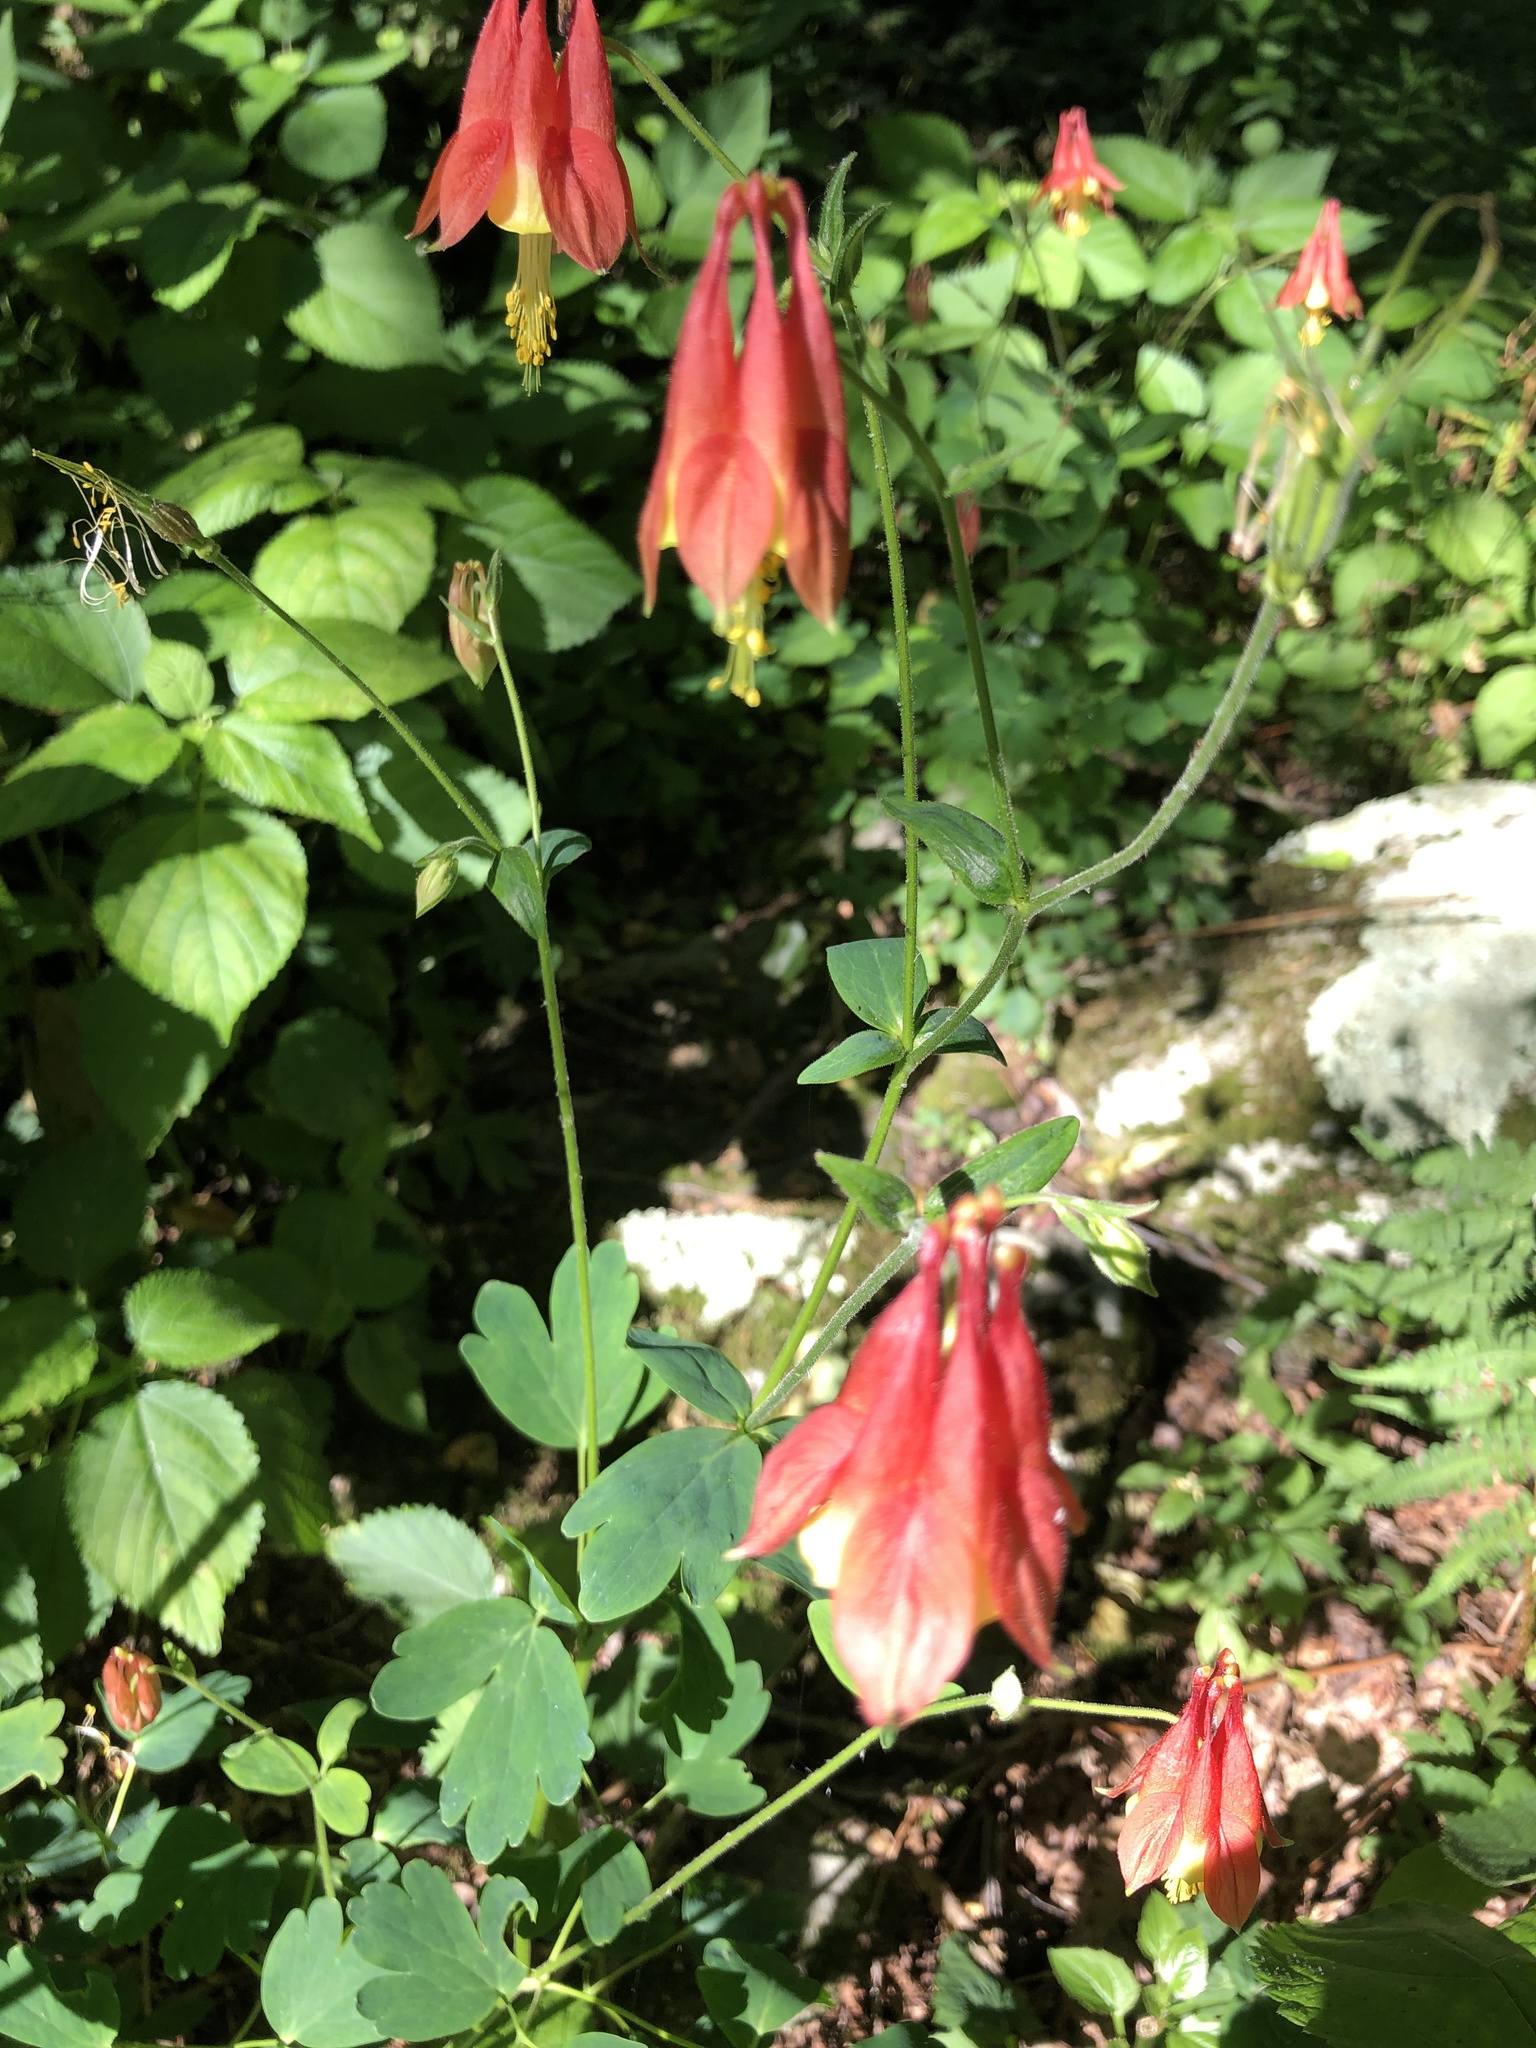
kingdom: Plantae
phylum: Tracheophyta
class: Magnoliopsida
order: Ranunculales
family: Ranunculaceae
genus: Aquilegia
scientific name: Aquilegia canadensis
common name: American columbine
